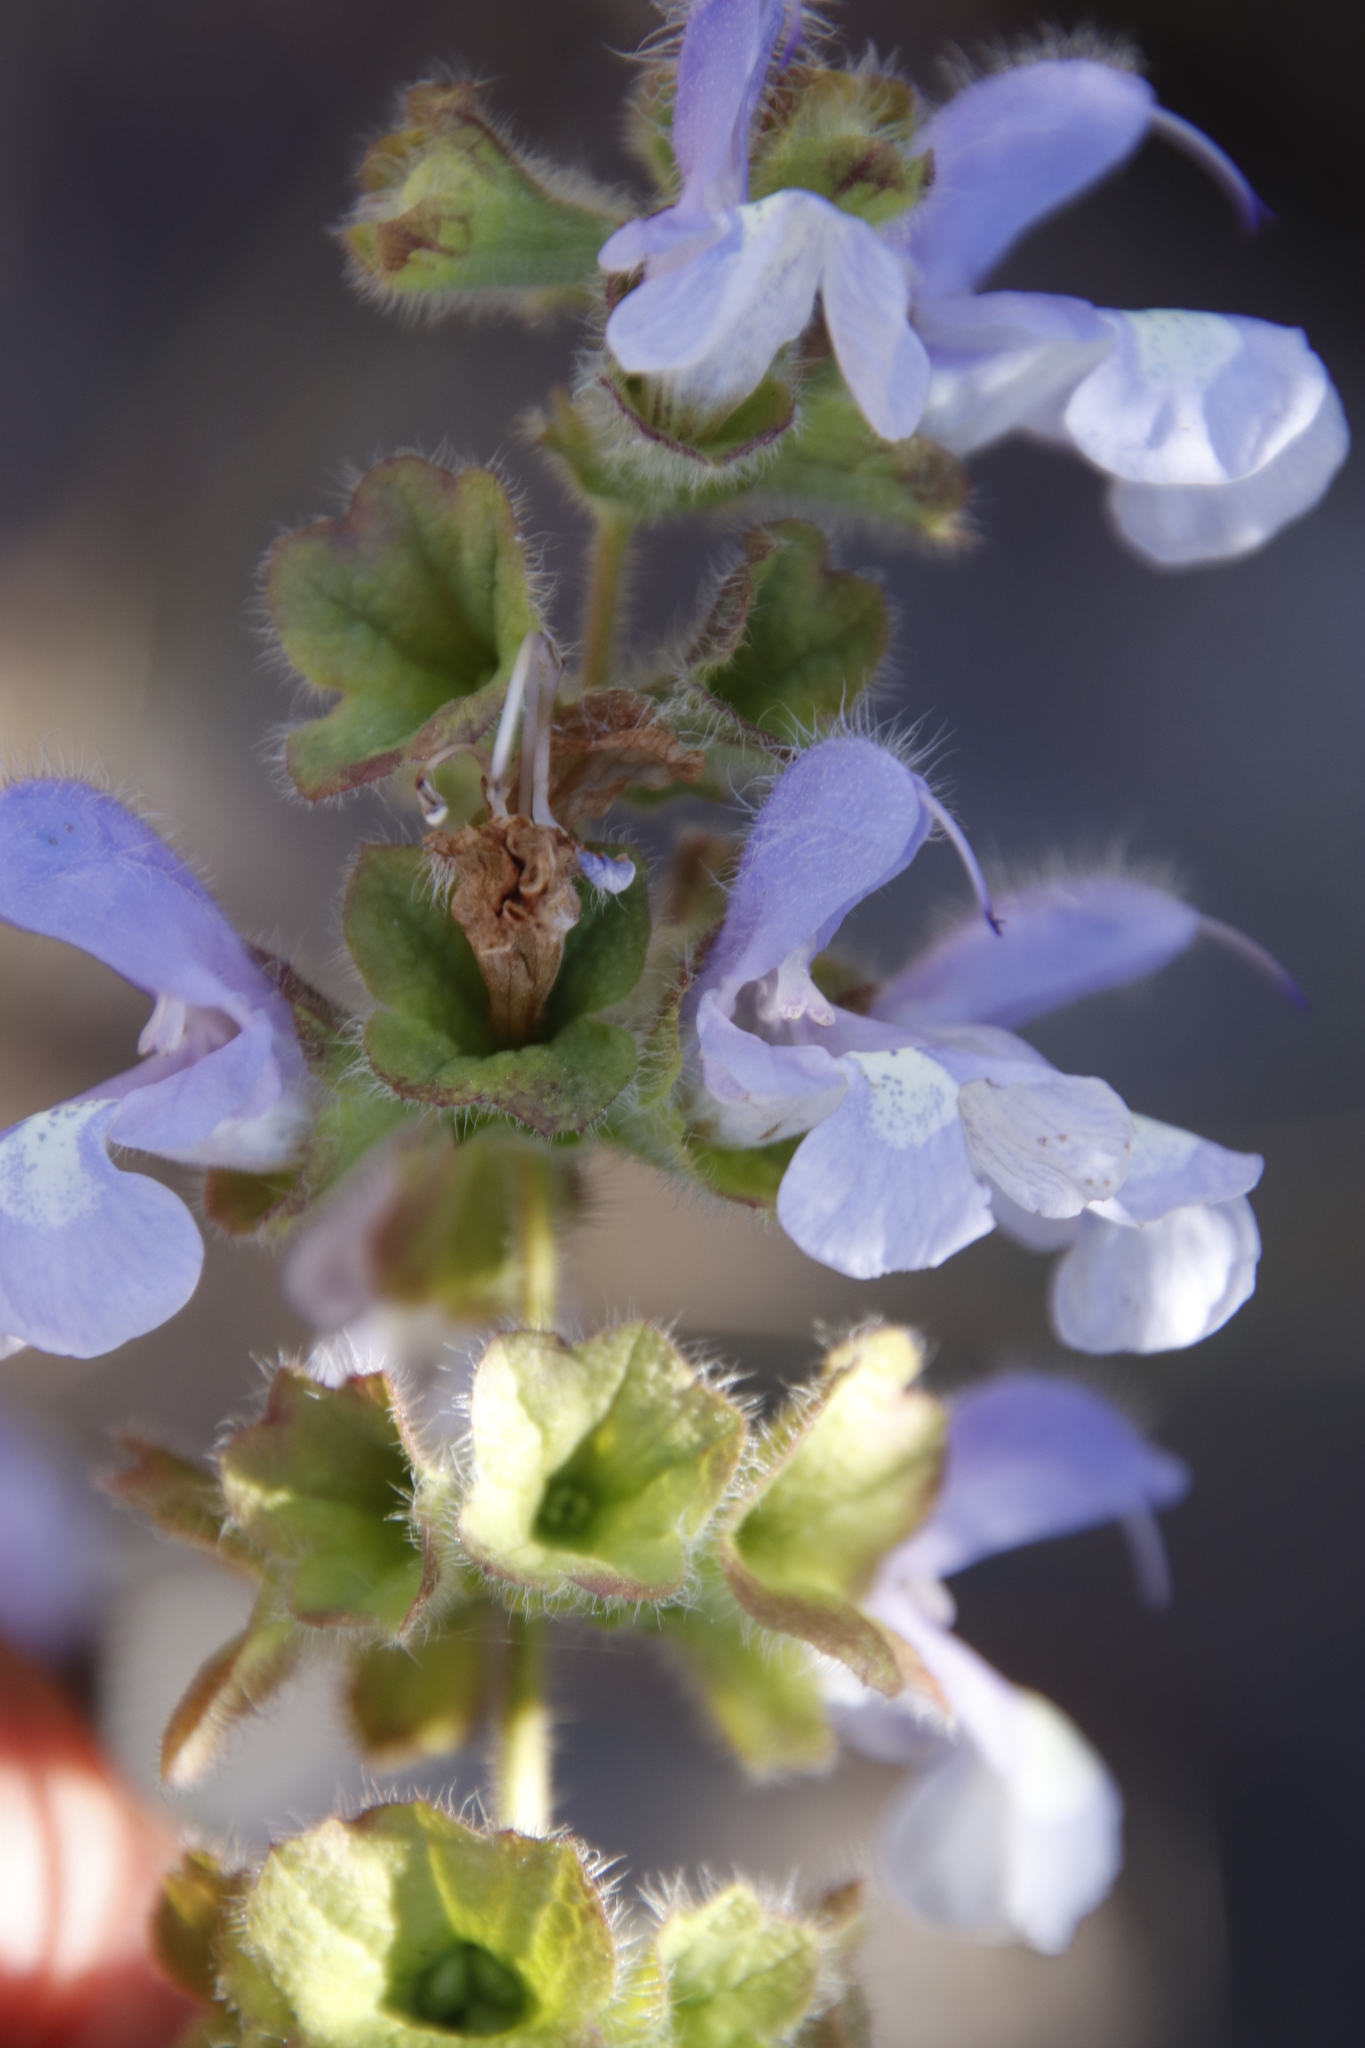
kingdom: Plantae
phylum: Tracheophyta
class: Magnoliopsida
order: Lamiales
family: Lamiaceae
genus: Salvia
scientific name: Salvia africana
